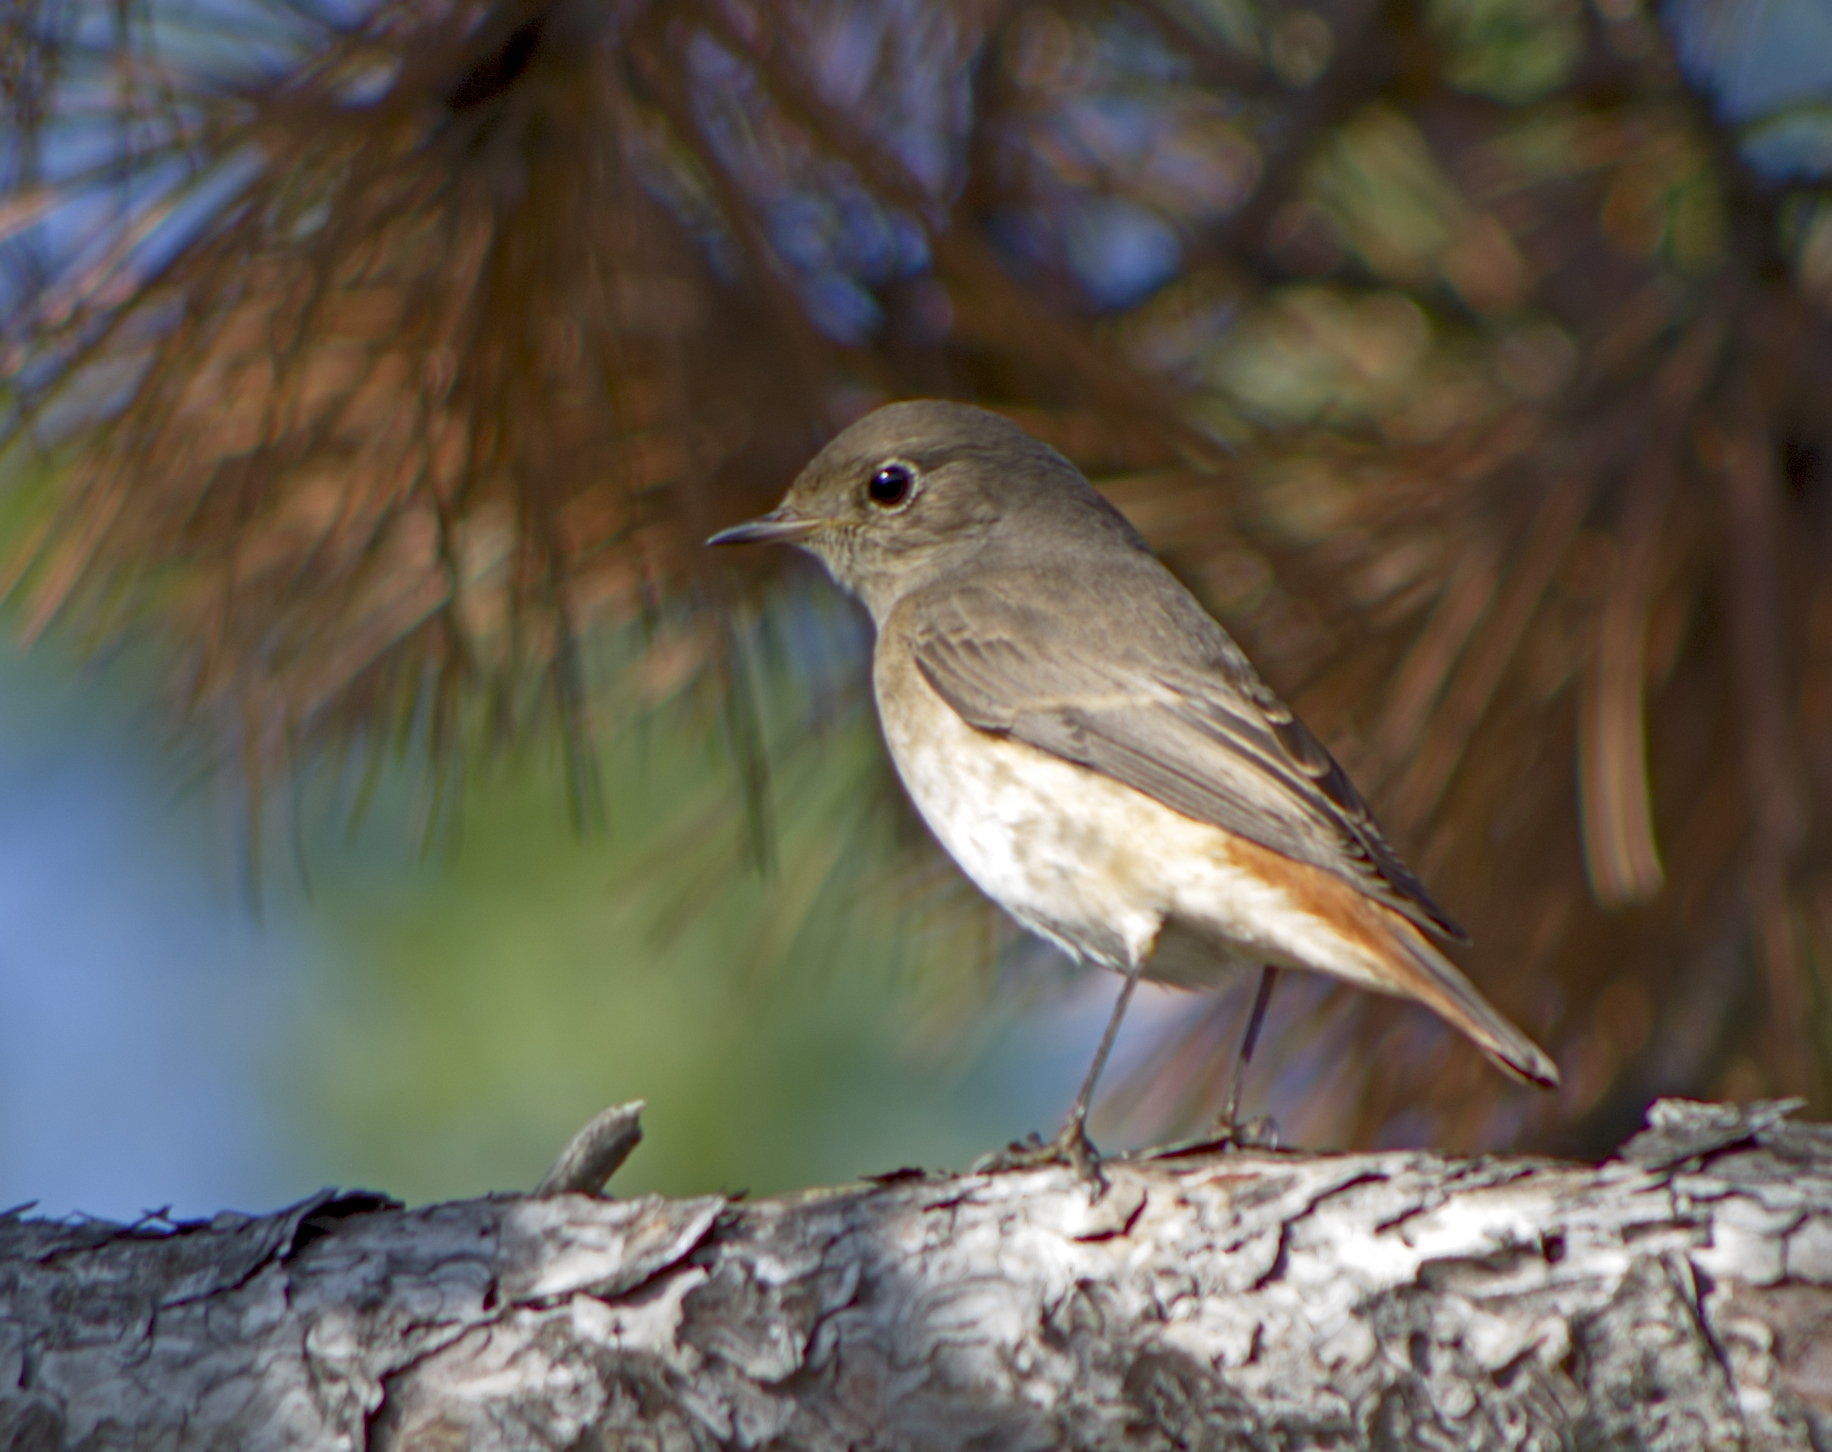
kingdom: Animalia
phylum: Chordata
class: Aves
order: Passeriformes
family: Muscicapidae
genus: Phoenicurus
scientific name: Phoenicurus phoenicurus
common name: Common redstart
